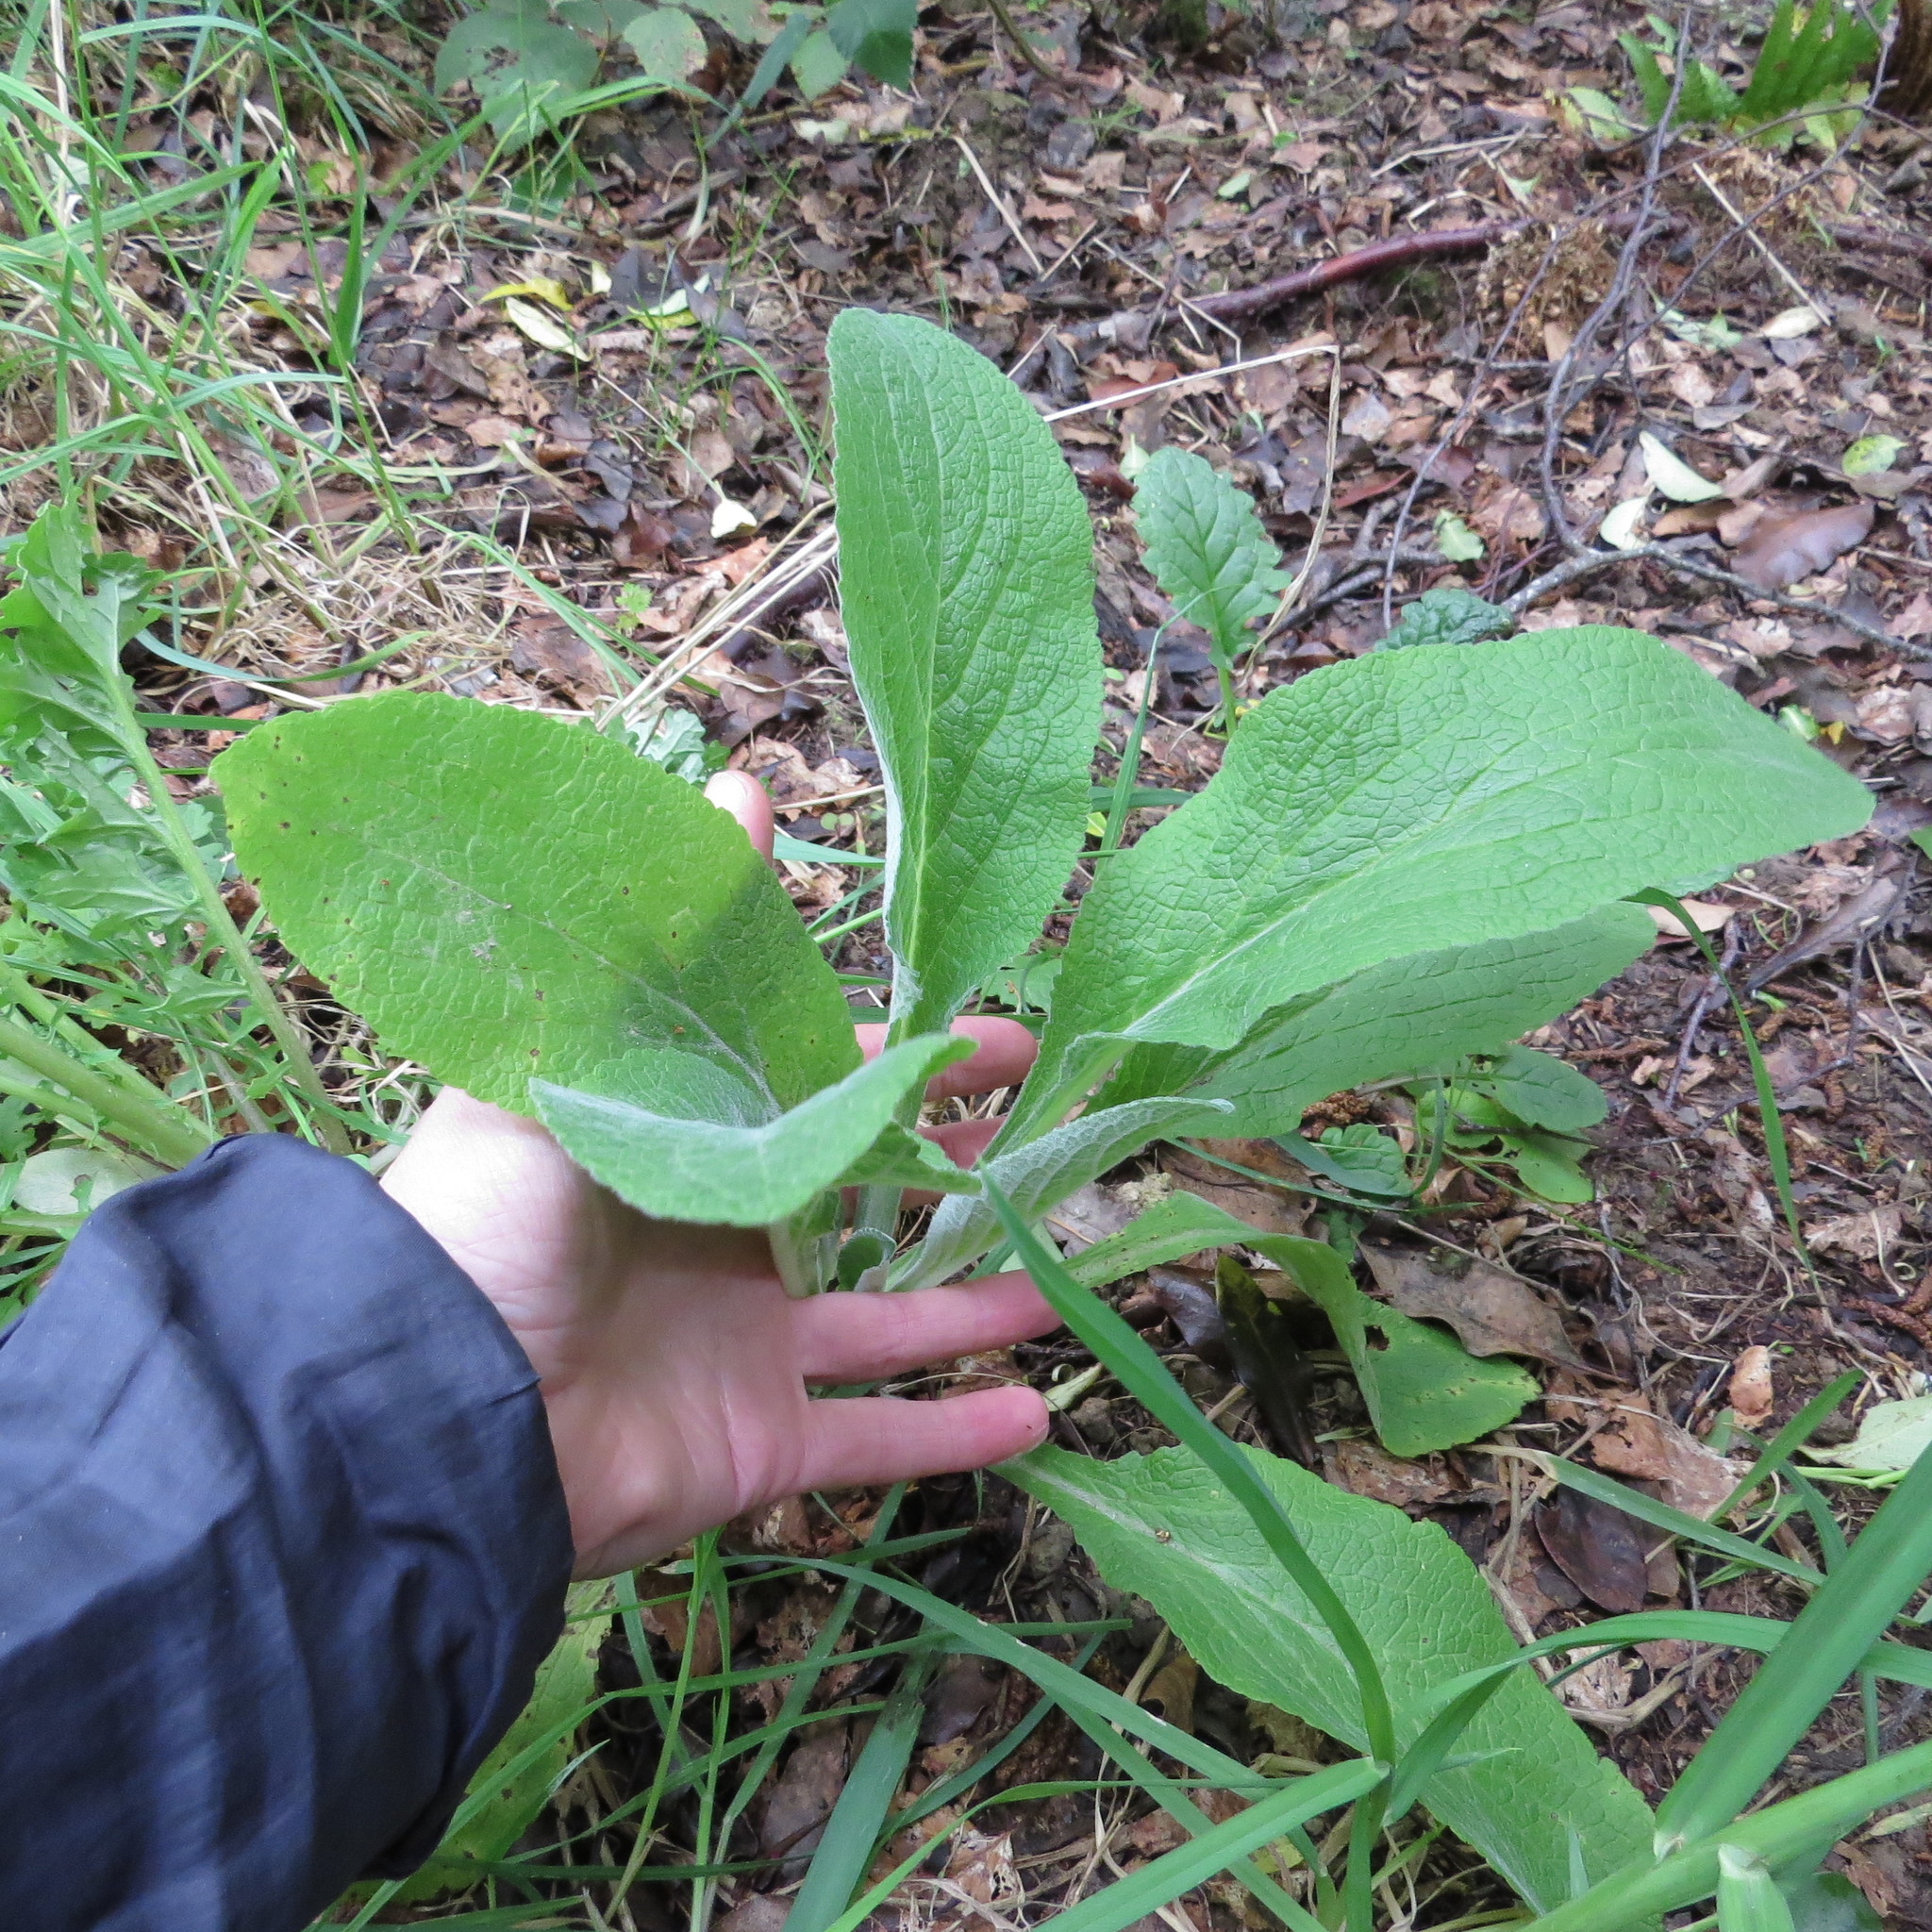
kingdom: Plantae
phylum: Tracheophyta
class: Magnoliopsida
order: Lamiales
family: Plantaginaceae
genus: Digitalis
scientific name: Digitalis purpurea
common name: Foxglove
